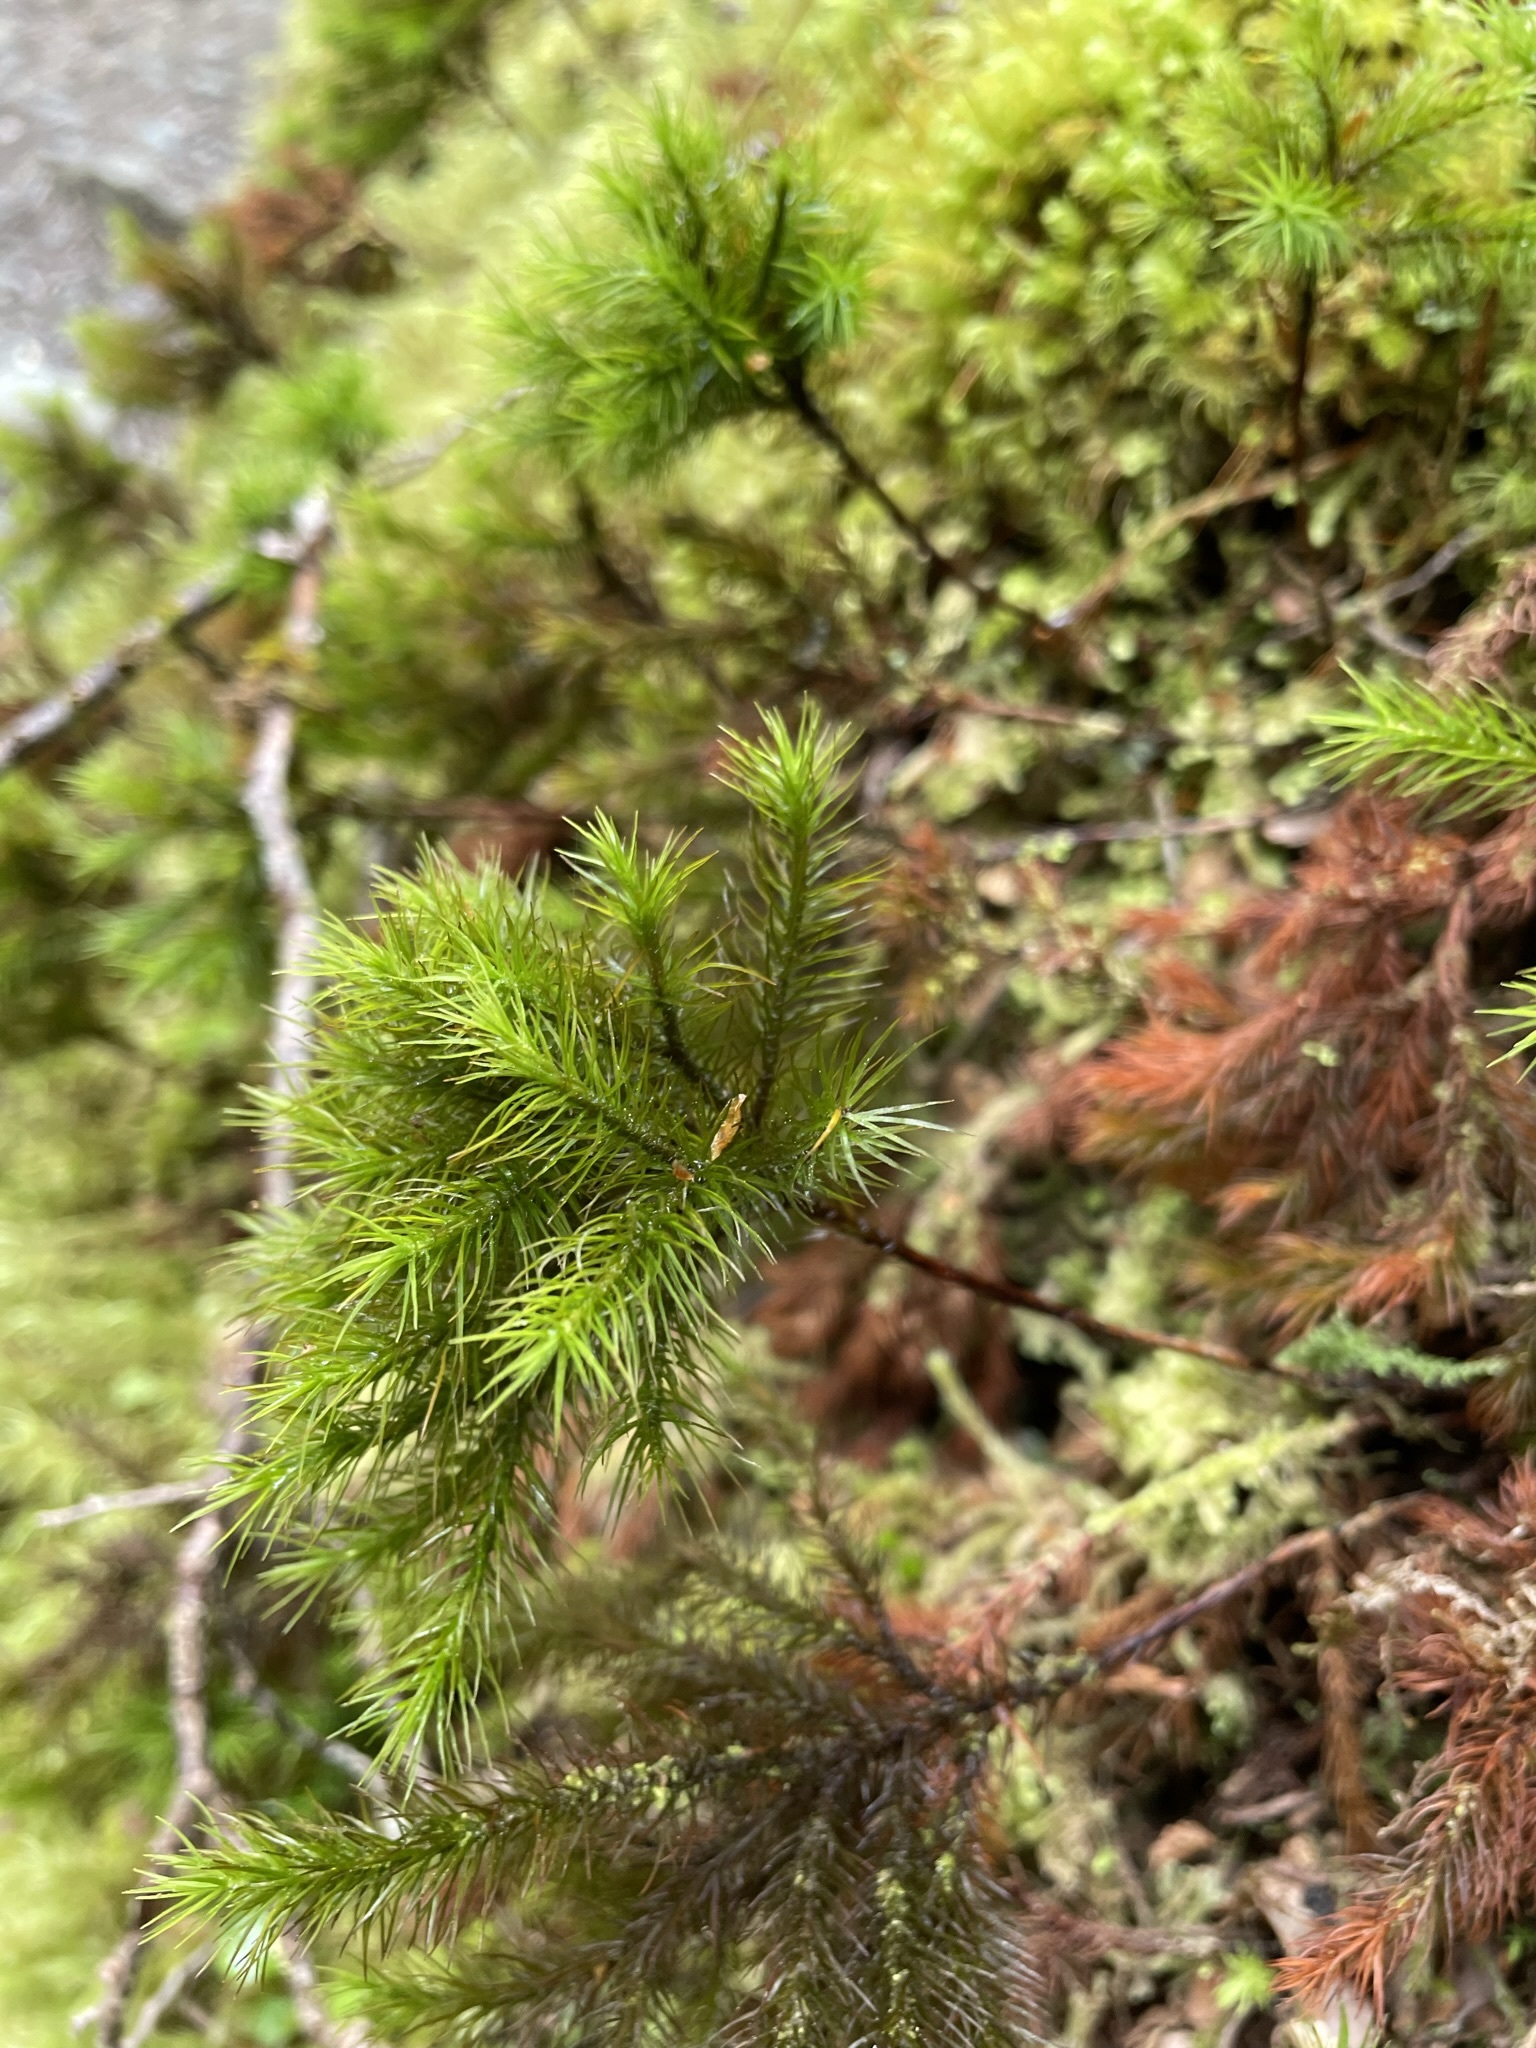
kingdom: Plantae
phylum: Bryophyta
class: Polytrichopsida
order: Polytrichales
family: Polytrichaceae
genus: Dendroligotrichum
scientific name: Dendroligotrichum tongariroense
